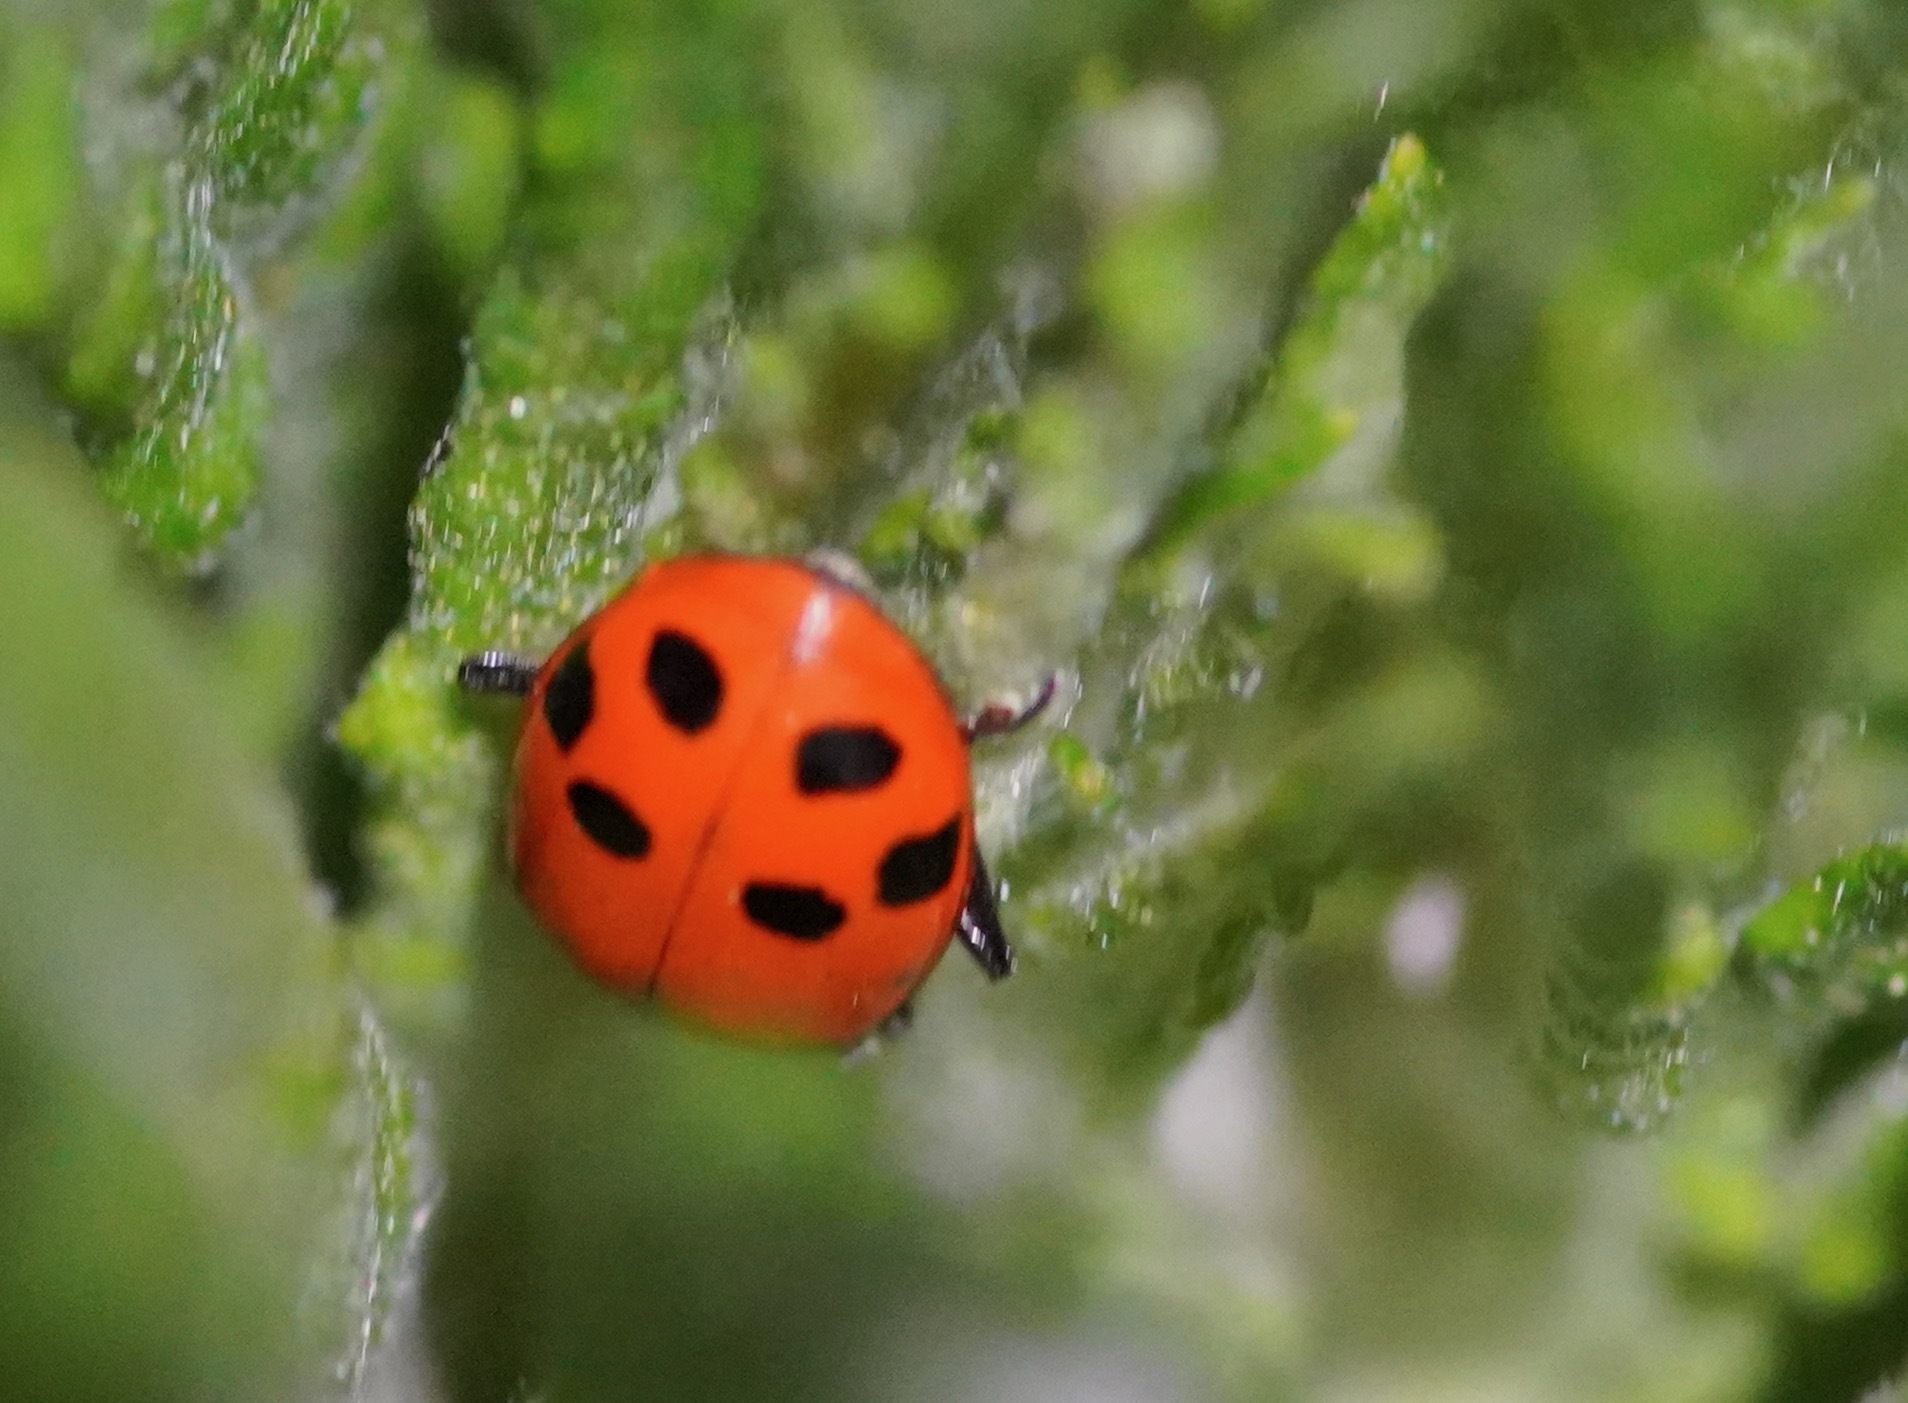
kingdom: Animalia
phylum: Arthropoda
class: Insecta
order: Coleoptera
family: Coccinellidae
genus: Hippodamia
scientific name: Hippodamia convergens
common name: Convergent lady beetle
